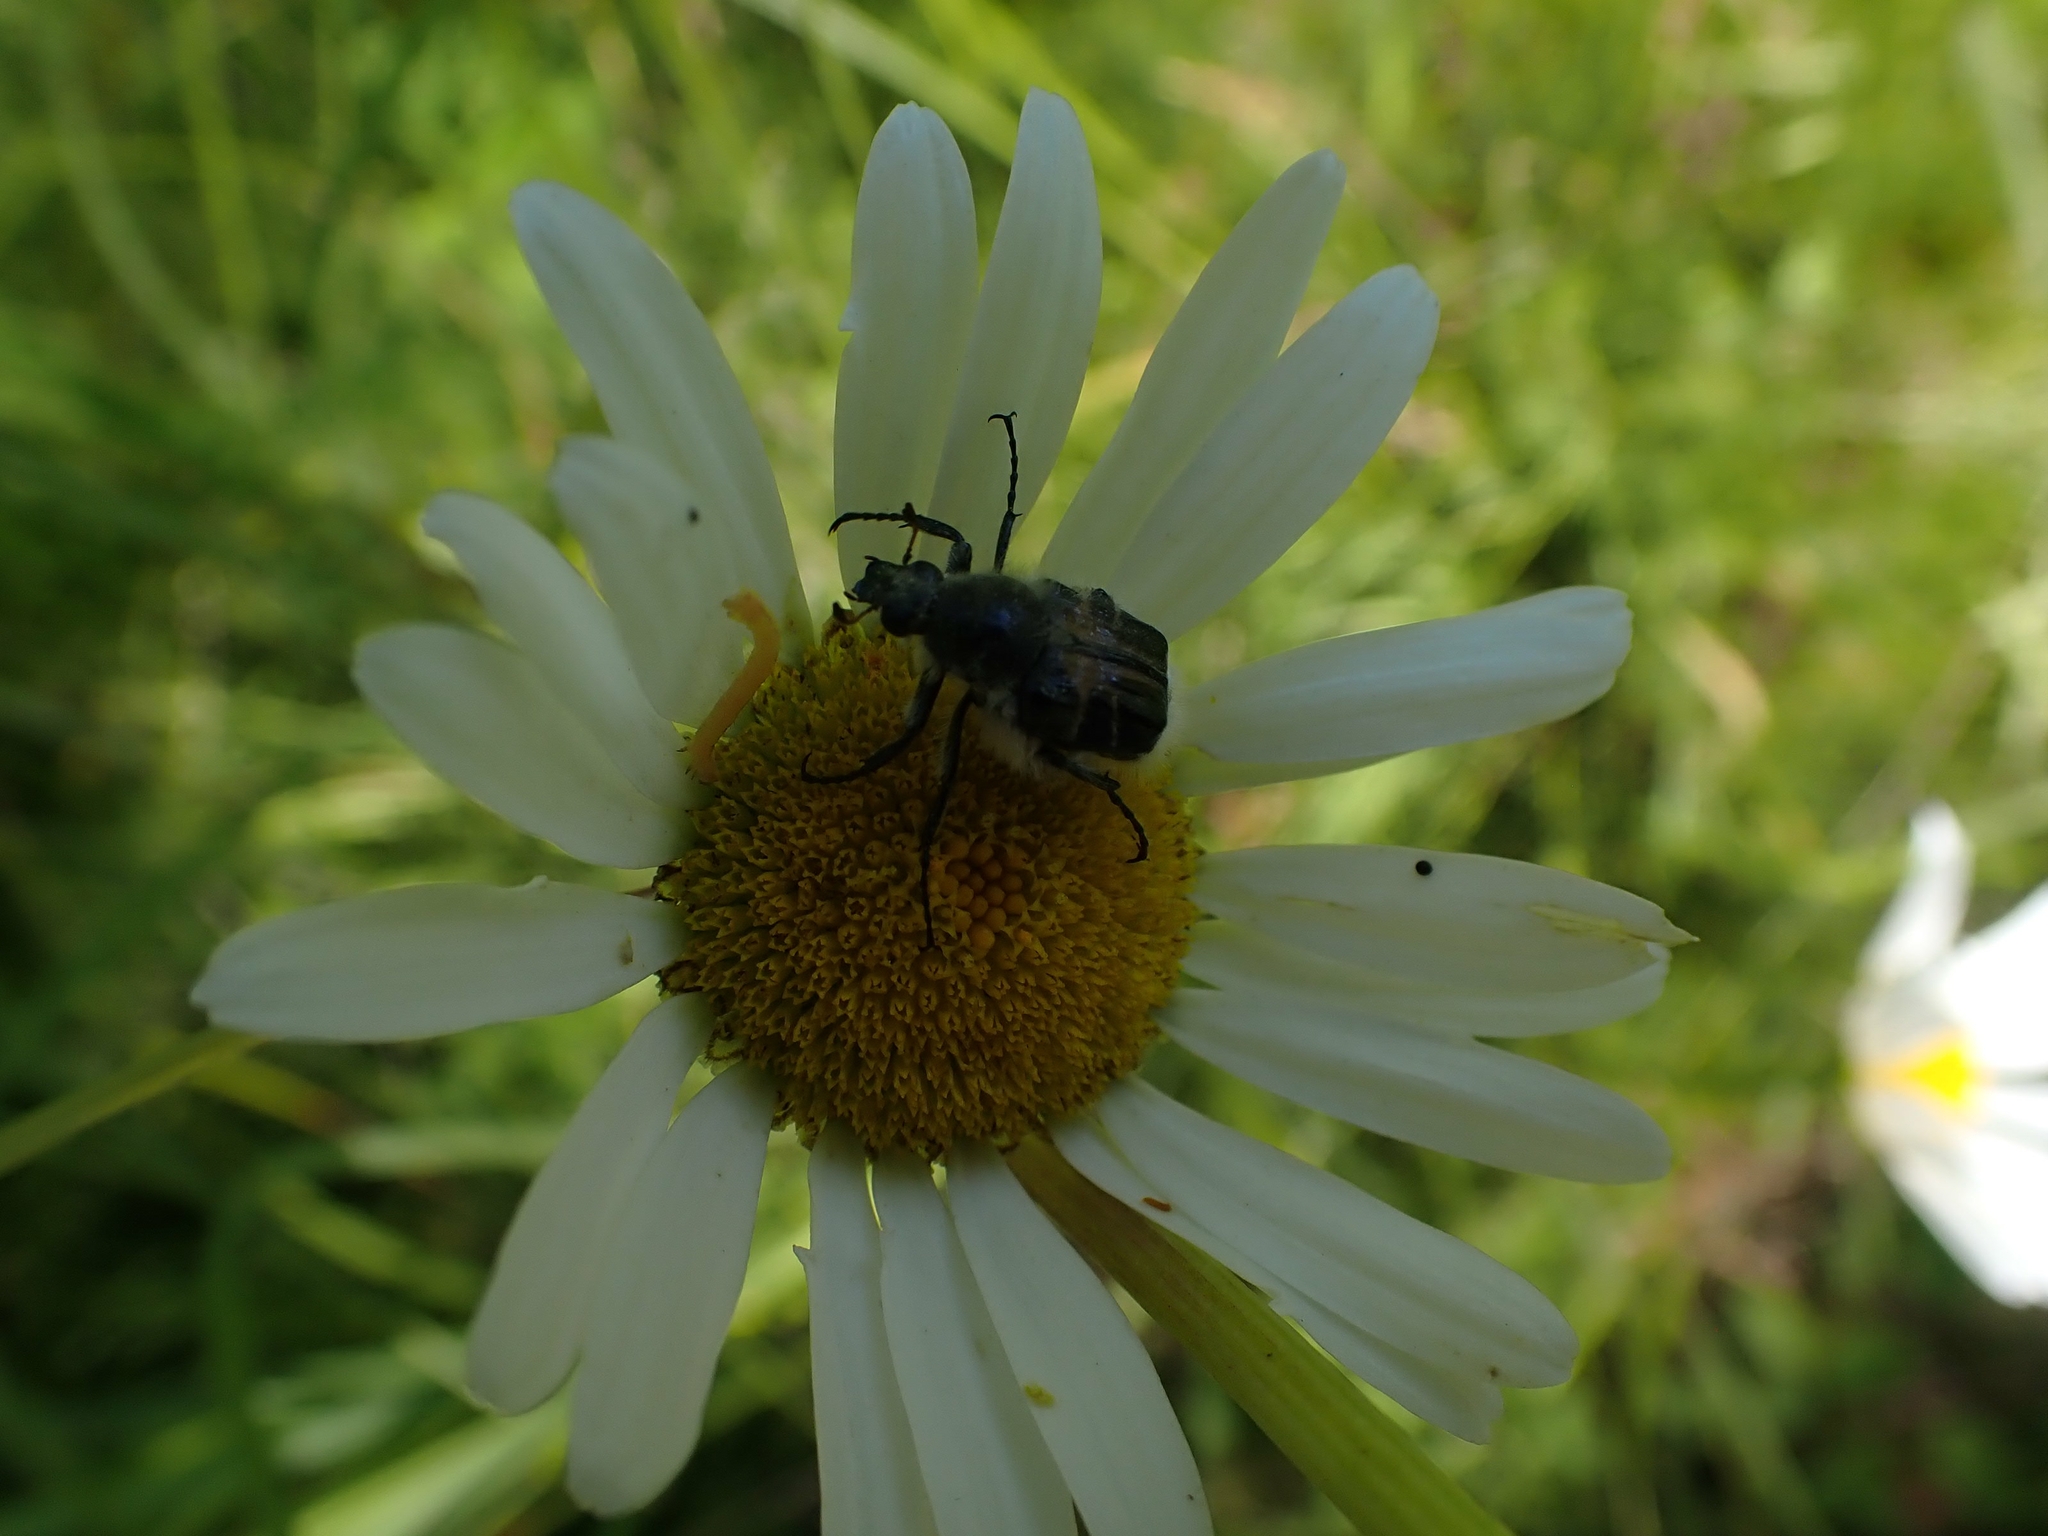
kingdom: Plantae
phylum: Tracheophyta
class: Magnoliopsida
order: Asterales
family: Asteraceae
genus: Leucanthemum
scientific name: Leucanthemum vulgare
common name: Oxeye daisy
